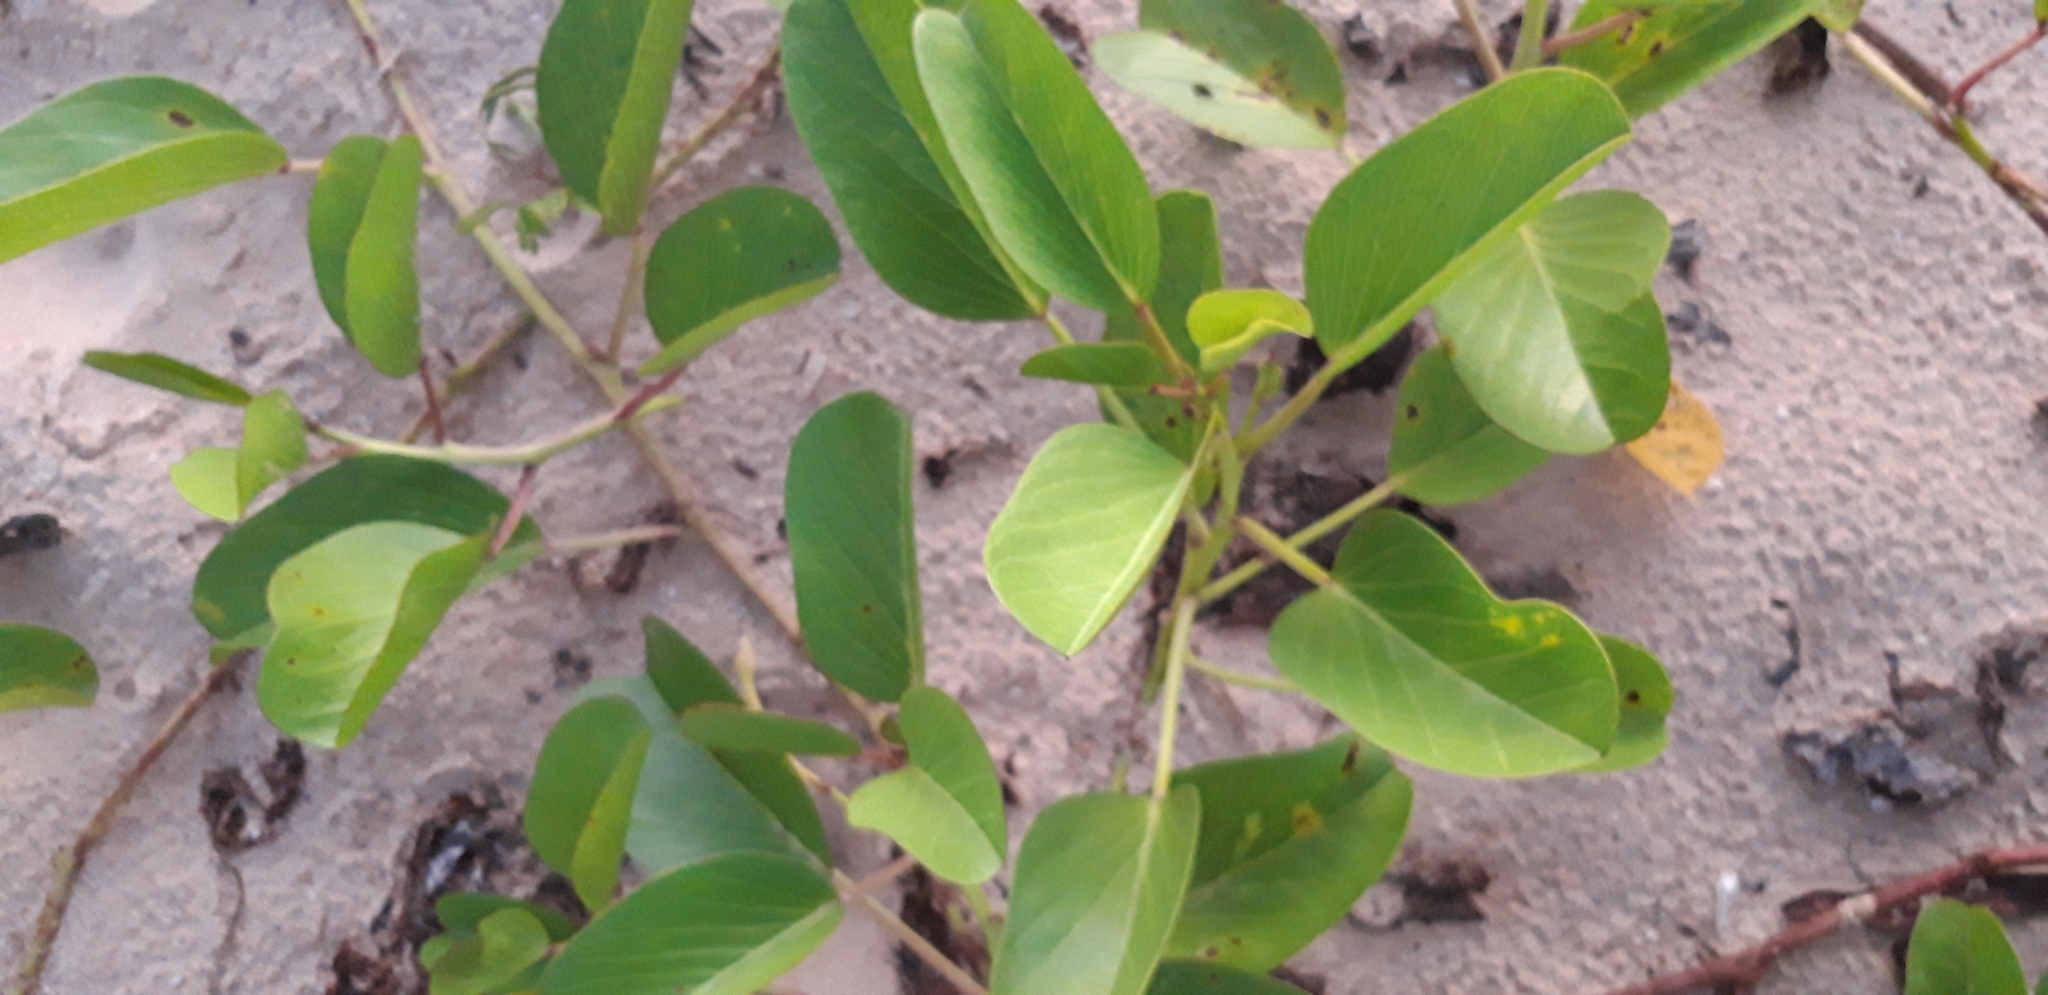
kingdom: Plantae
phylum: Tracheophyta
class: Magnoliopsida
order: Solanales
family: Convolvulaceae
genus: Ipomoea
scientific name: Ipomoea pes-caprae
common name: Beach morning glory
